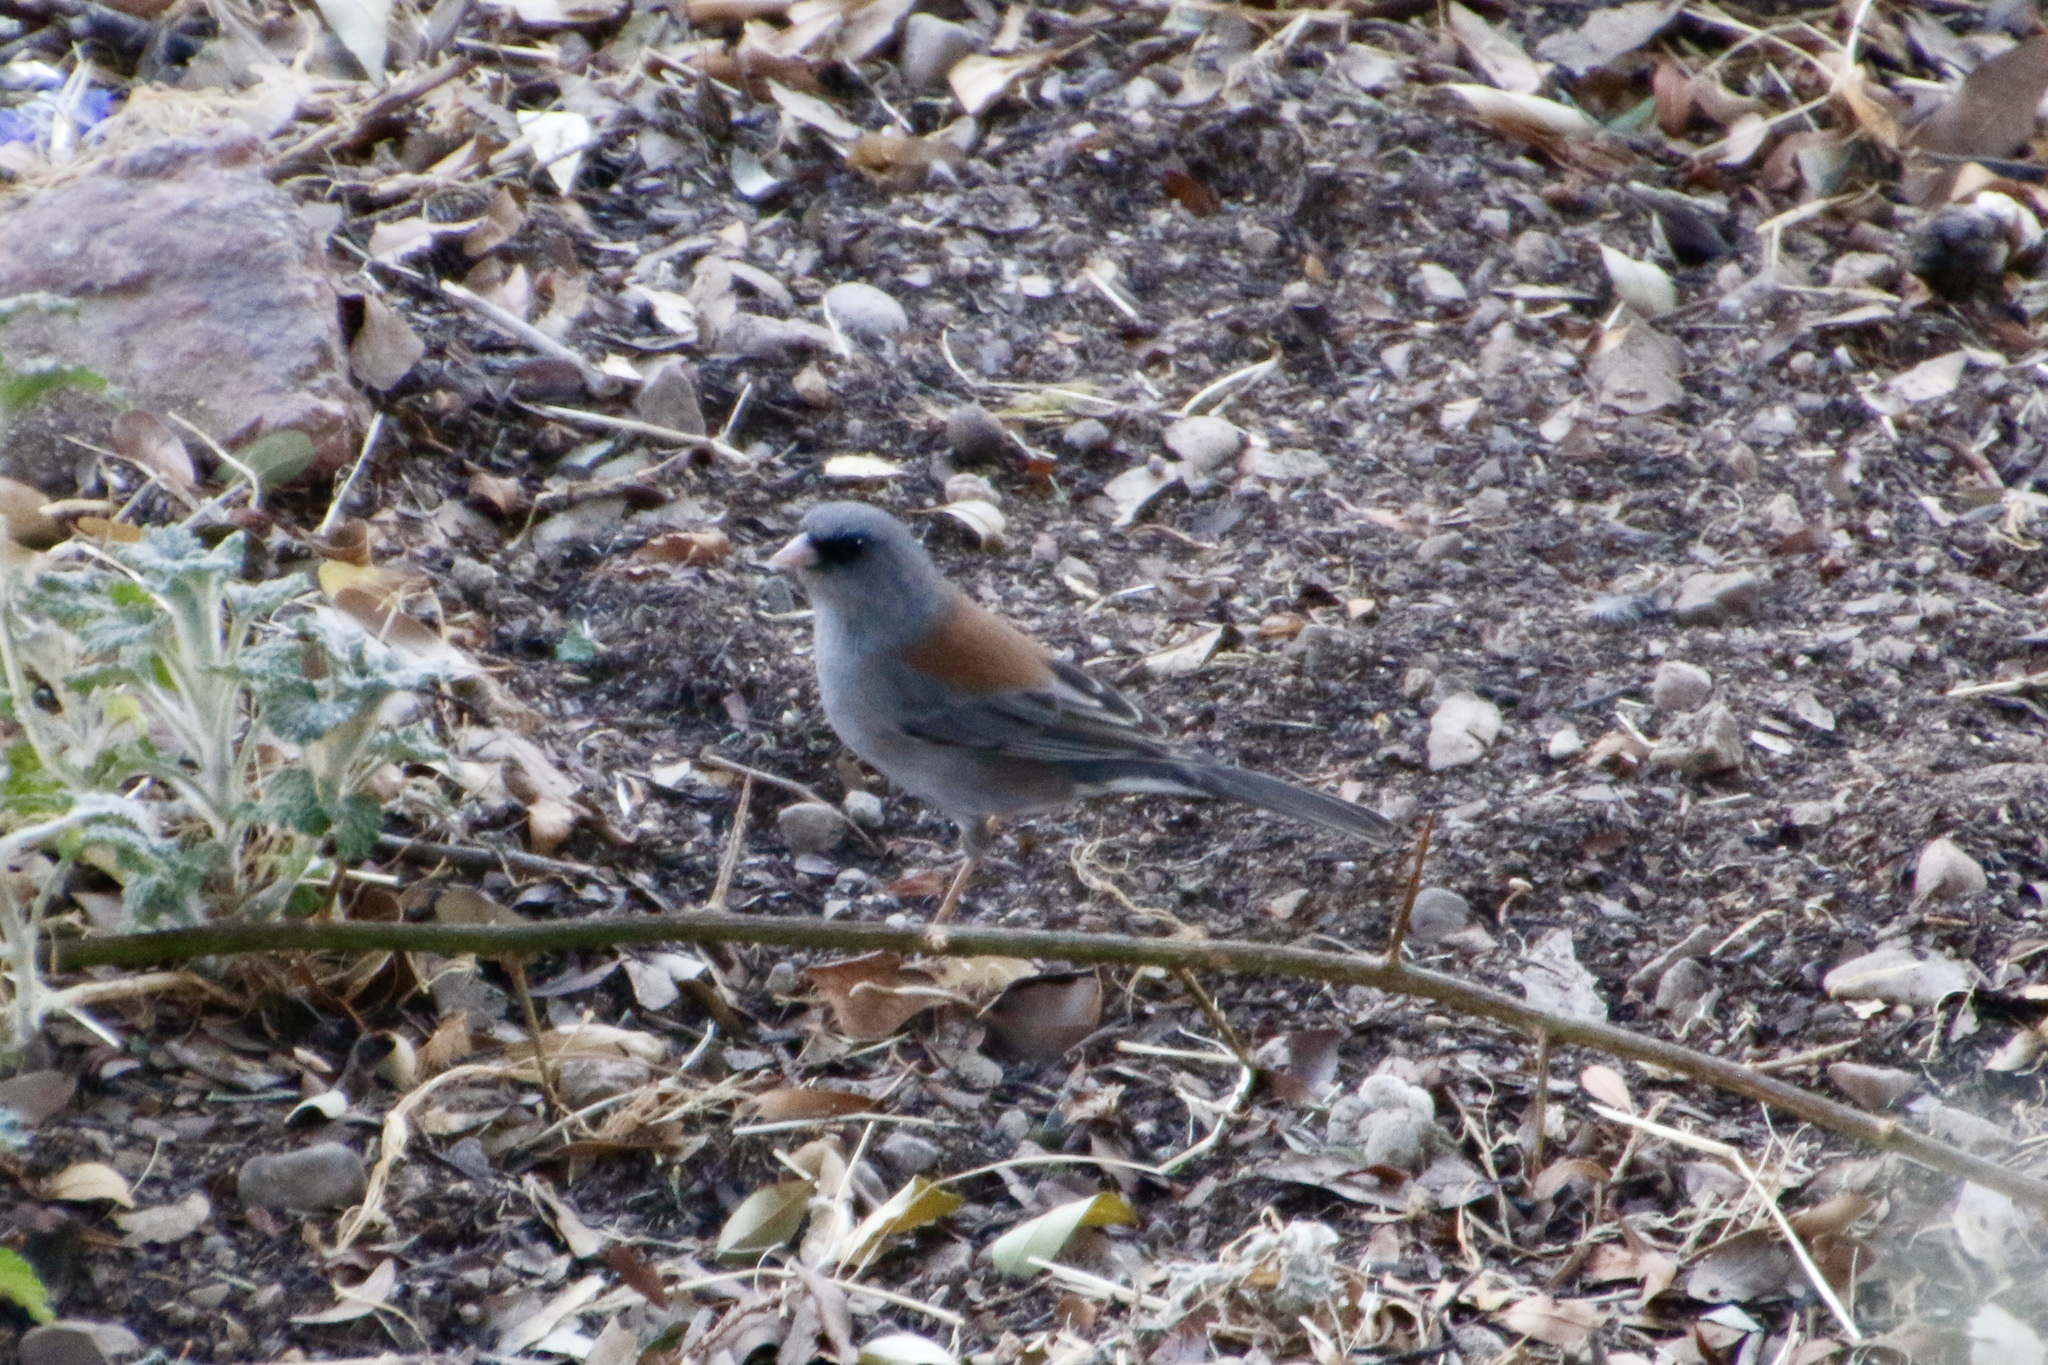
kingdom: Animalia
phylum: Chordata
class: Aves
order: Passeriformes
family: Passerellidae
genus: Junco
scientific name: Junco hyemalis
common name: Dark-eyed junco
